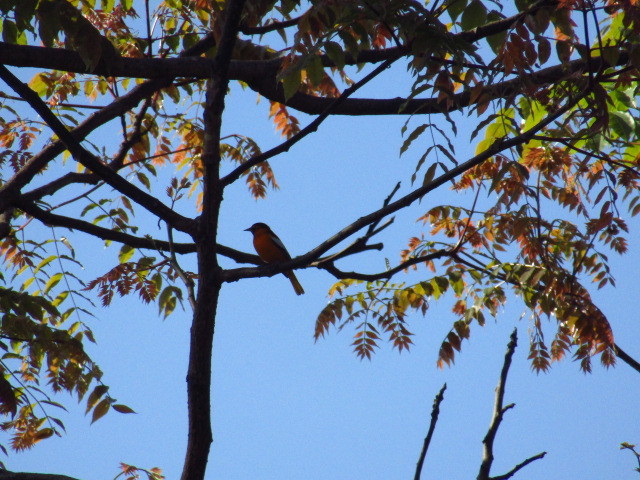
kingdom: Animalia
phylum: Chordata
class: Aves
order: Passeriformes
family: Icteridae
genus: Icterus
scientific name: Icterus bullockii
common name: Bullock's oriole
